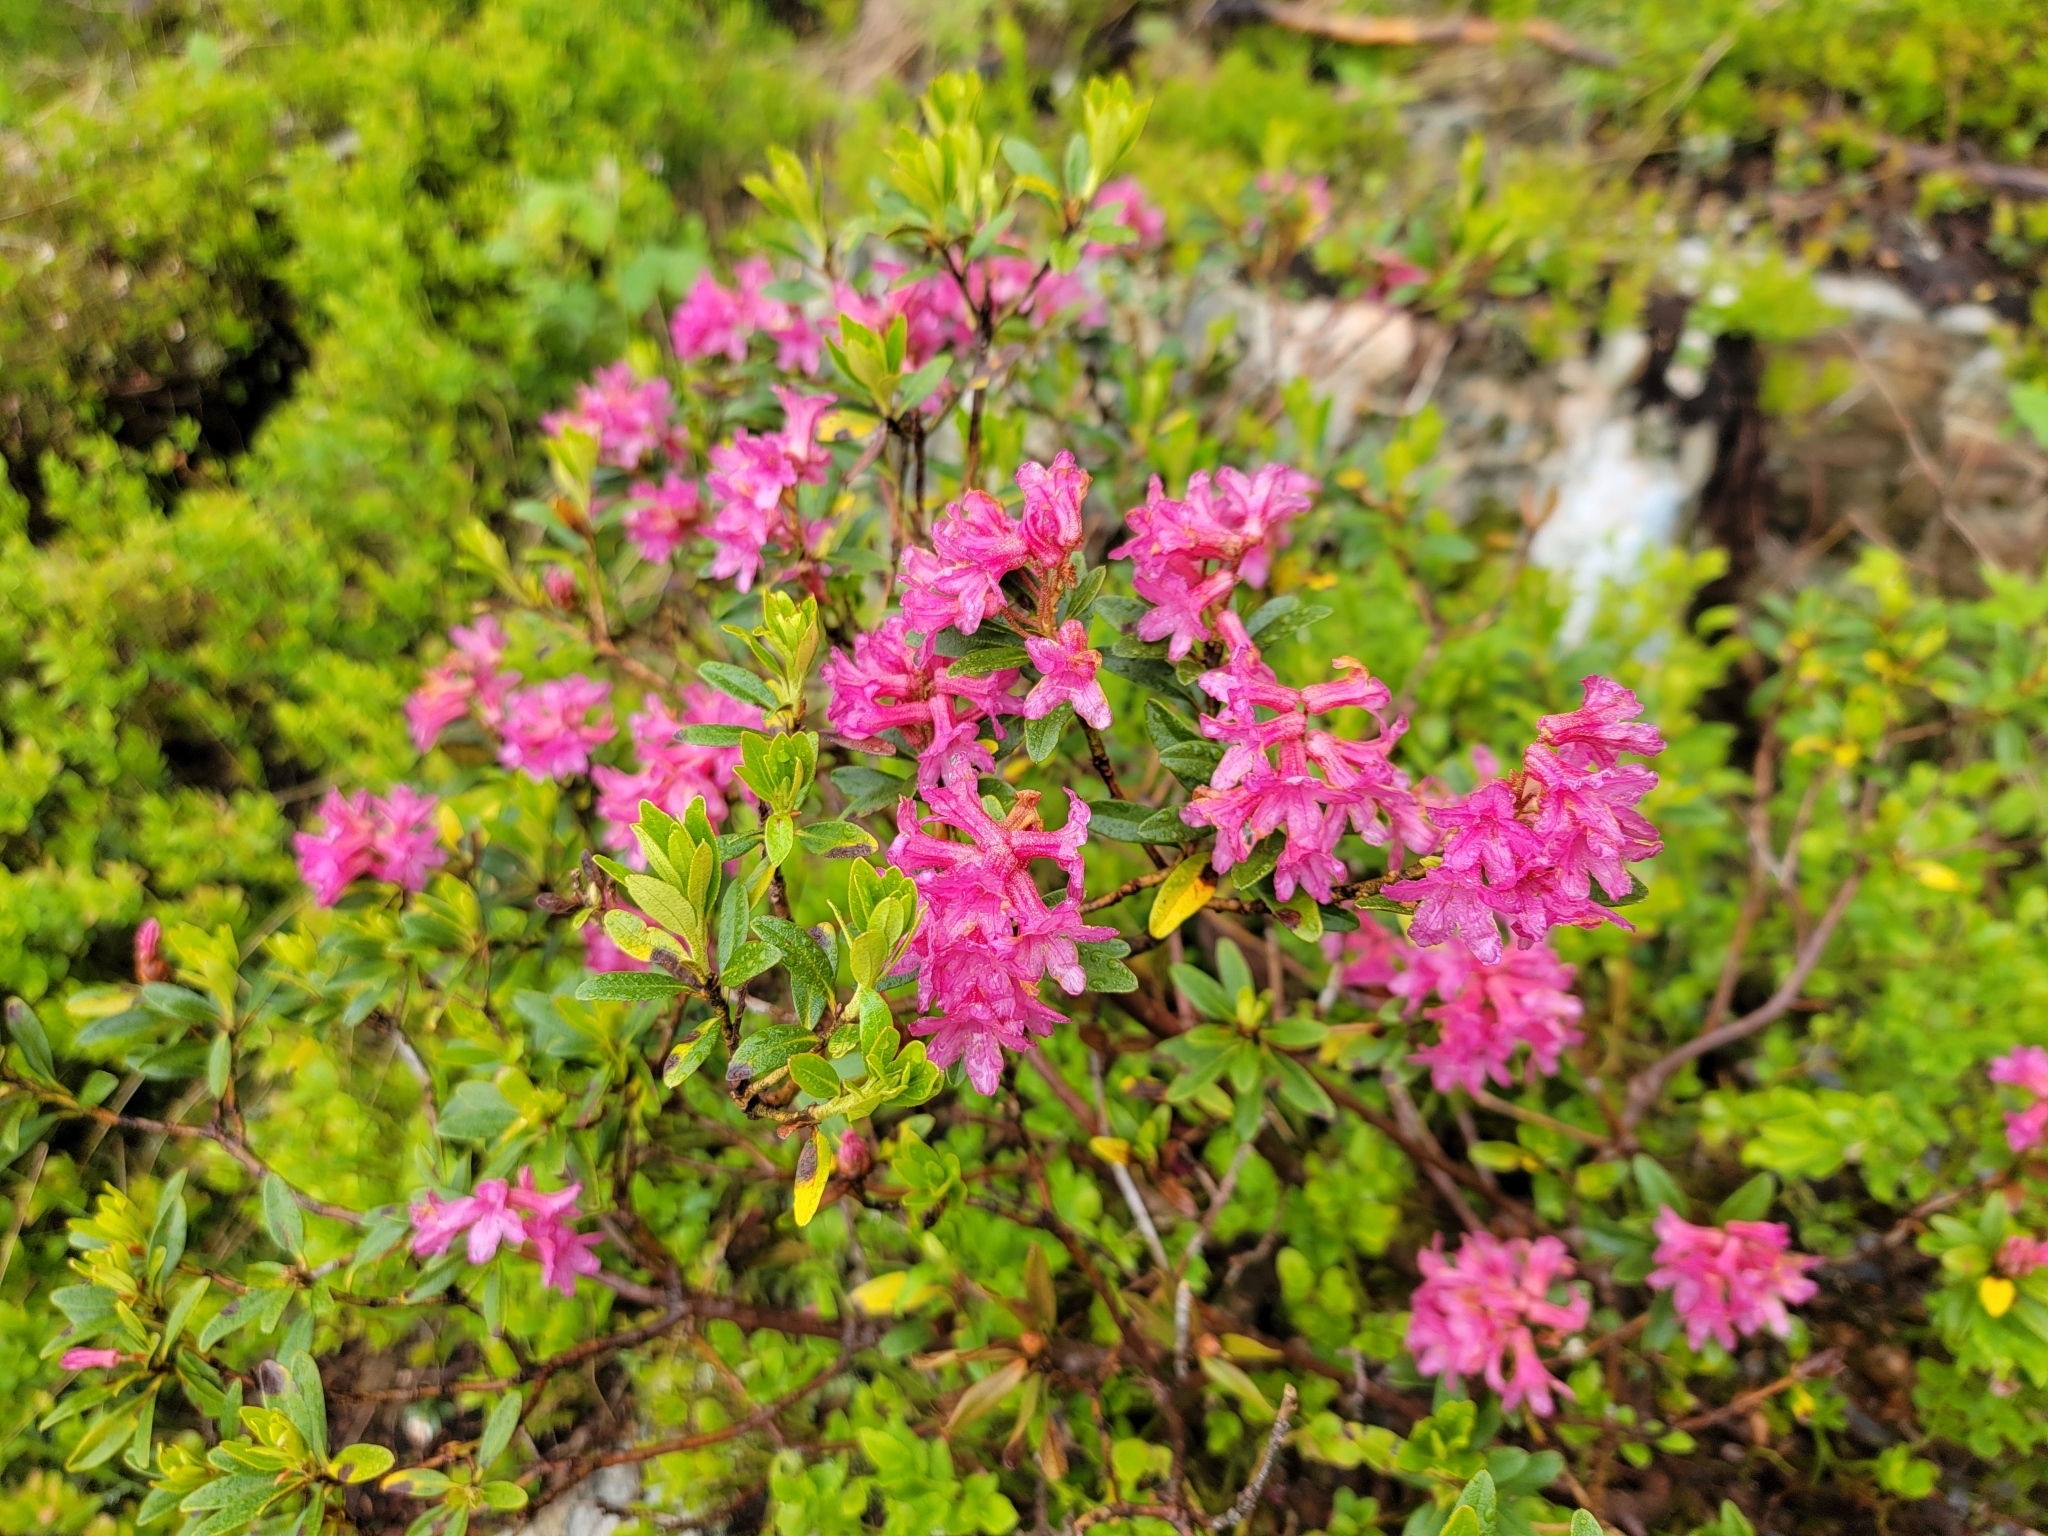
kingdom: Plantae
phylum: Tracheophyta
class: Magnoliopsida
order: Ericales
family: Ericaceae
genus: Rhododendron
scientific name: Rhododendron ferrugineum
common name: Alpenrose
